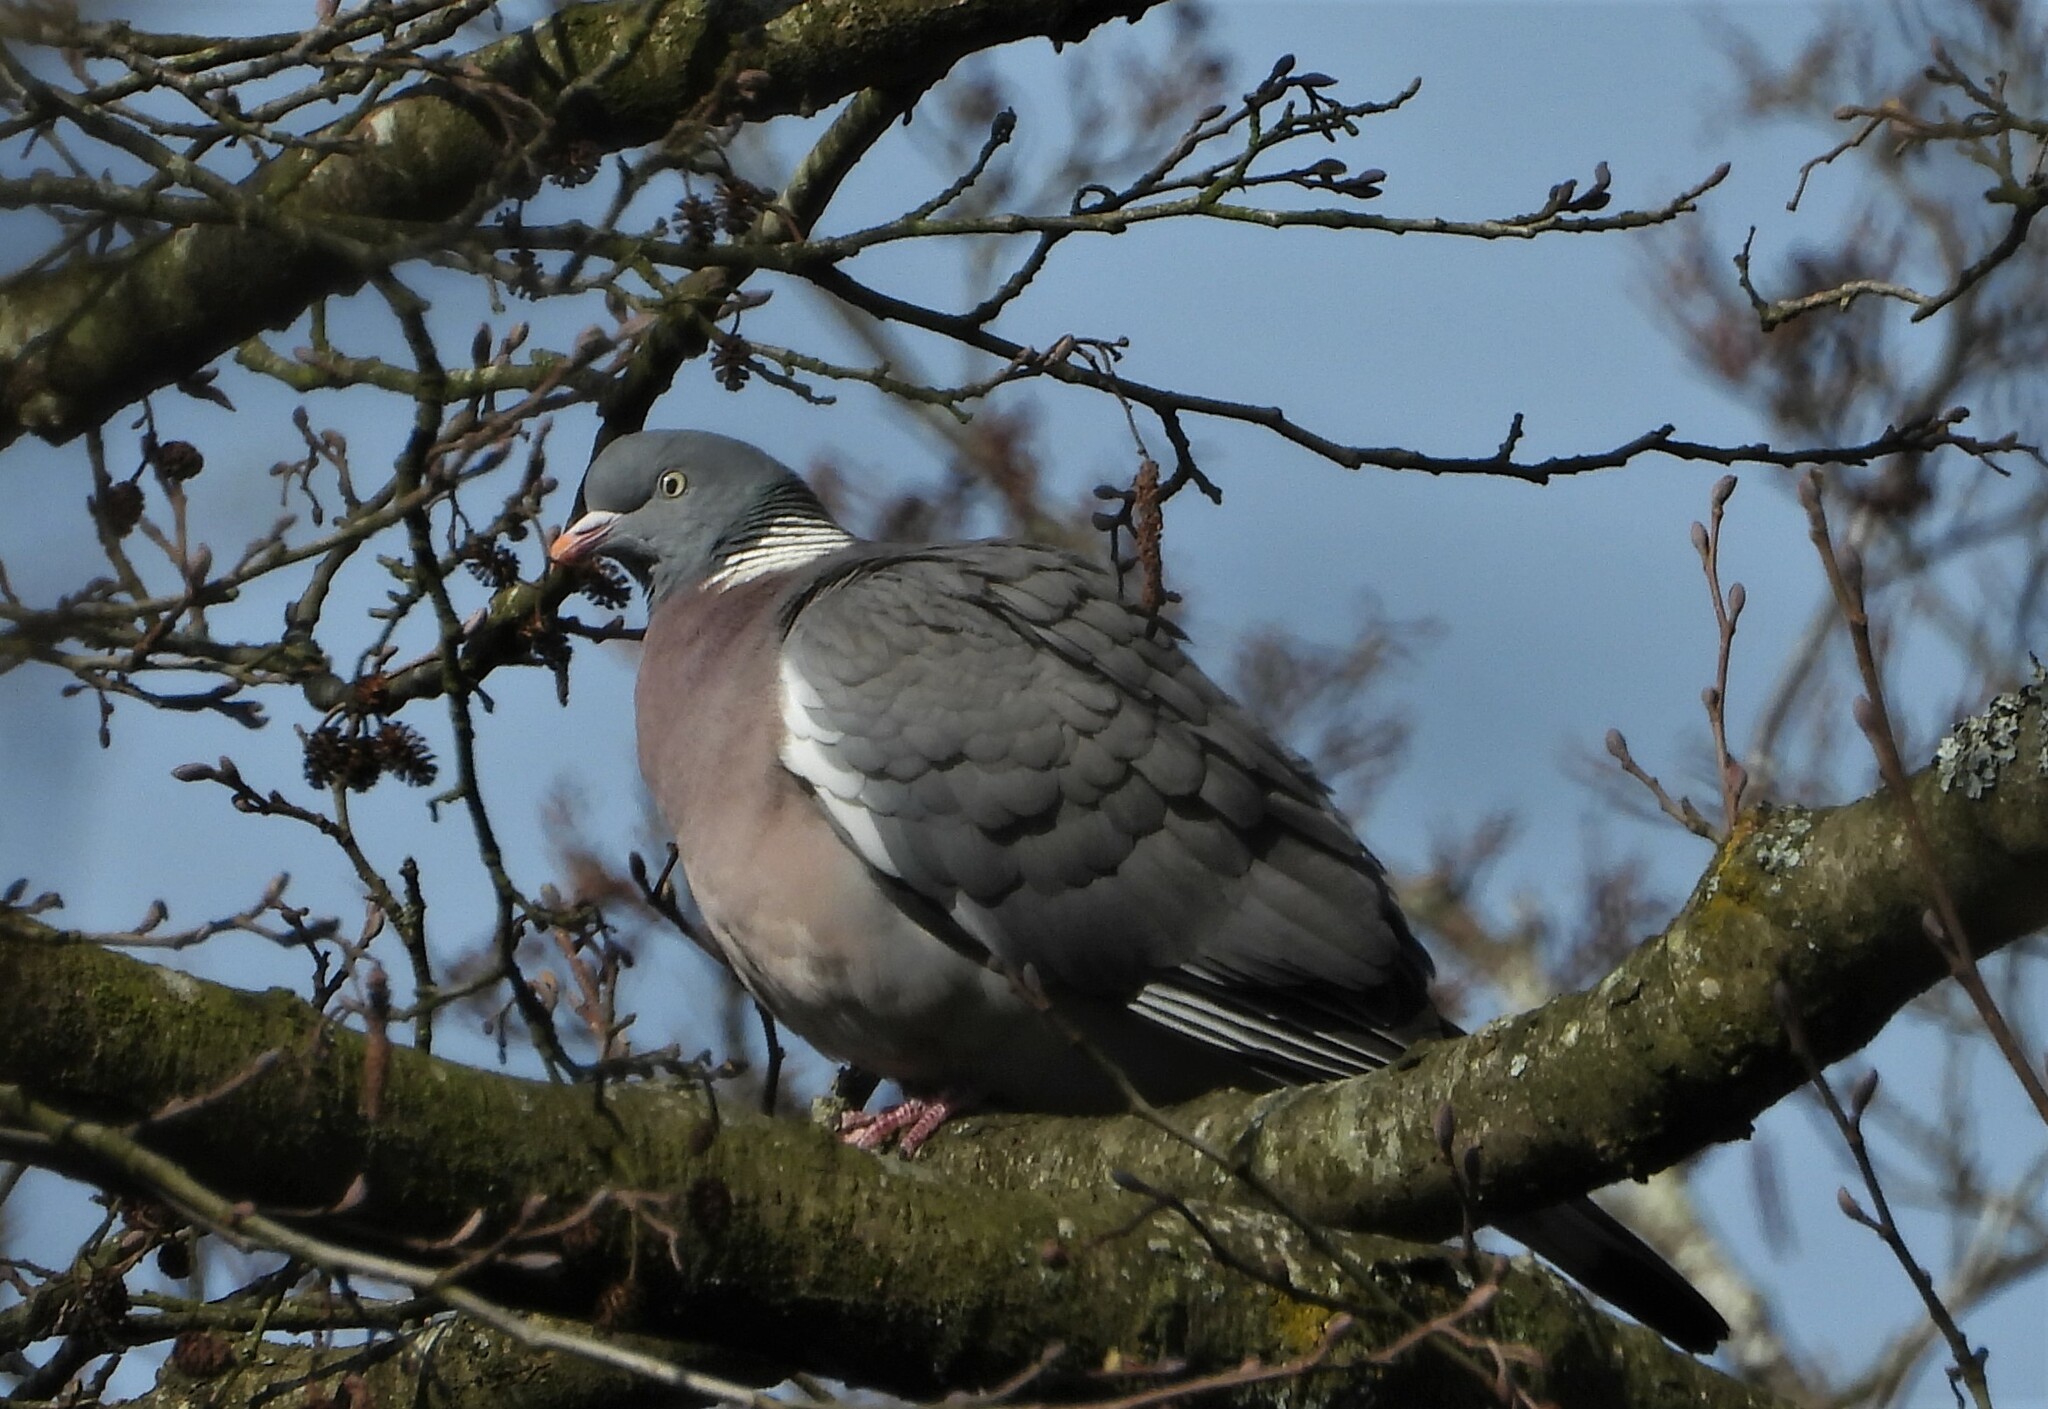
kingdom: Animalia
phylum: Chordata
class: Aves
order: Columbiformes
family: Columbidae
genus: Columba
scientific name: Columba palumbus
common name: Common wood pigeon
